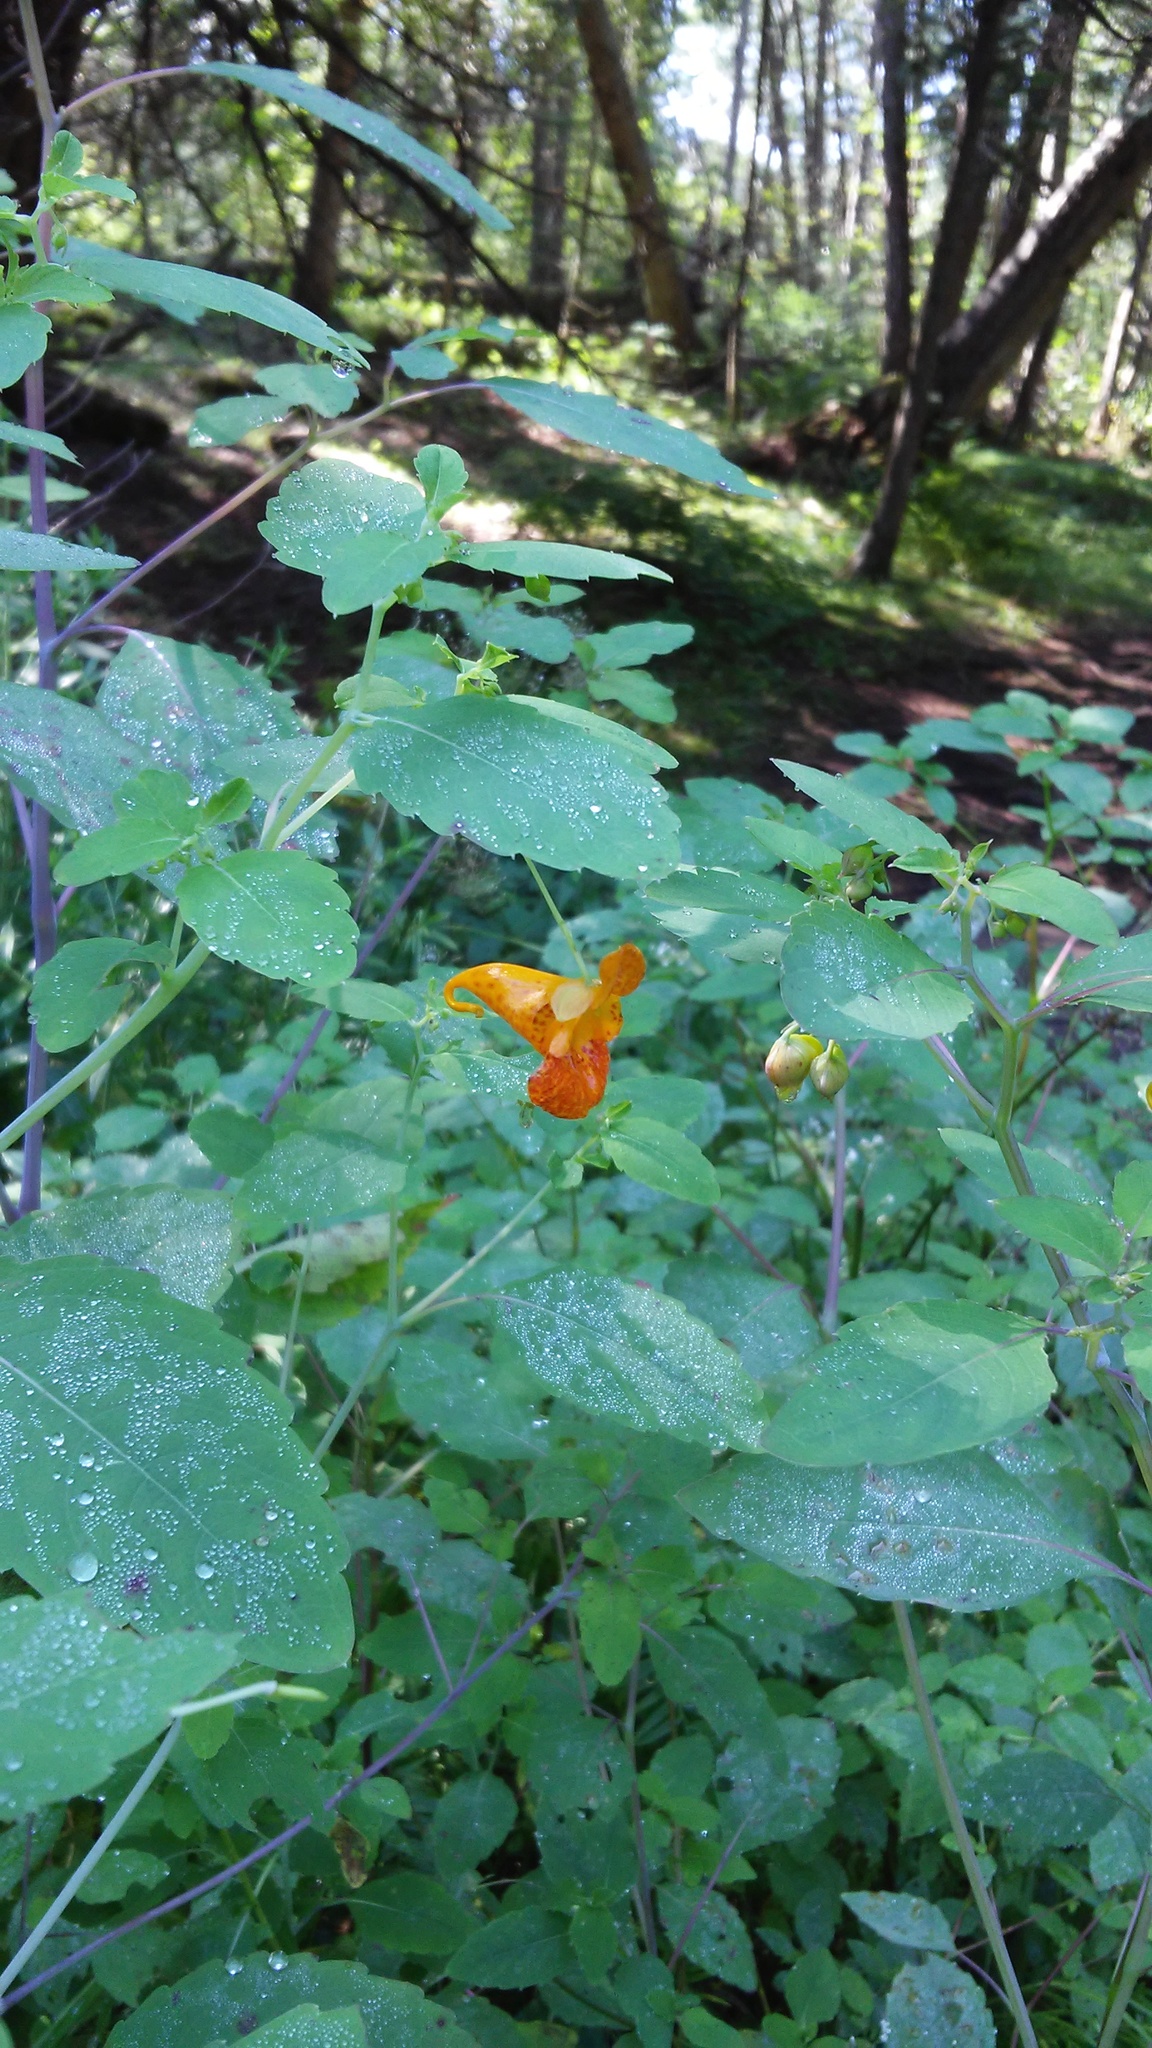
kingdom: Plantae
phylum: Tracheophyta
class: Magnoliopsida
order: Ericales
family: Balsaminaceae
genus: Impatiens
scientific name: Impatiens capensis
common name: Orange balsam
